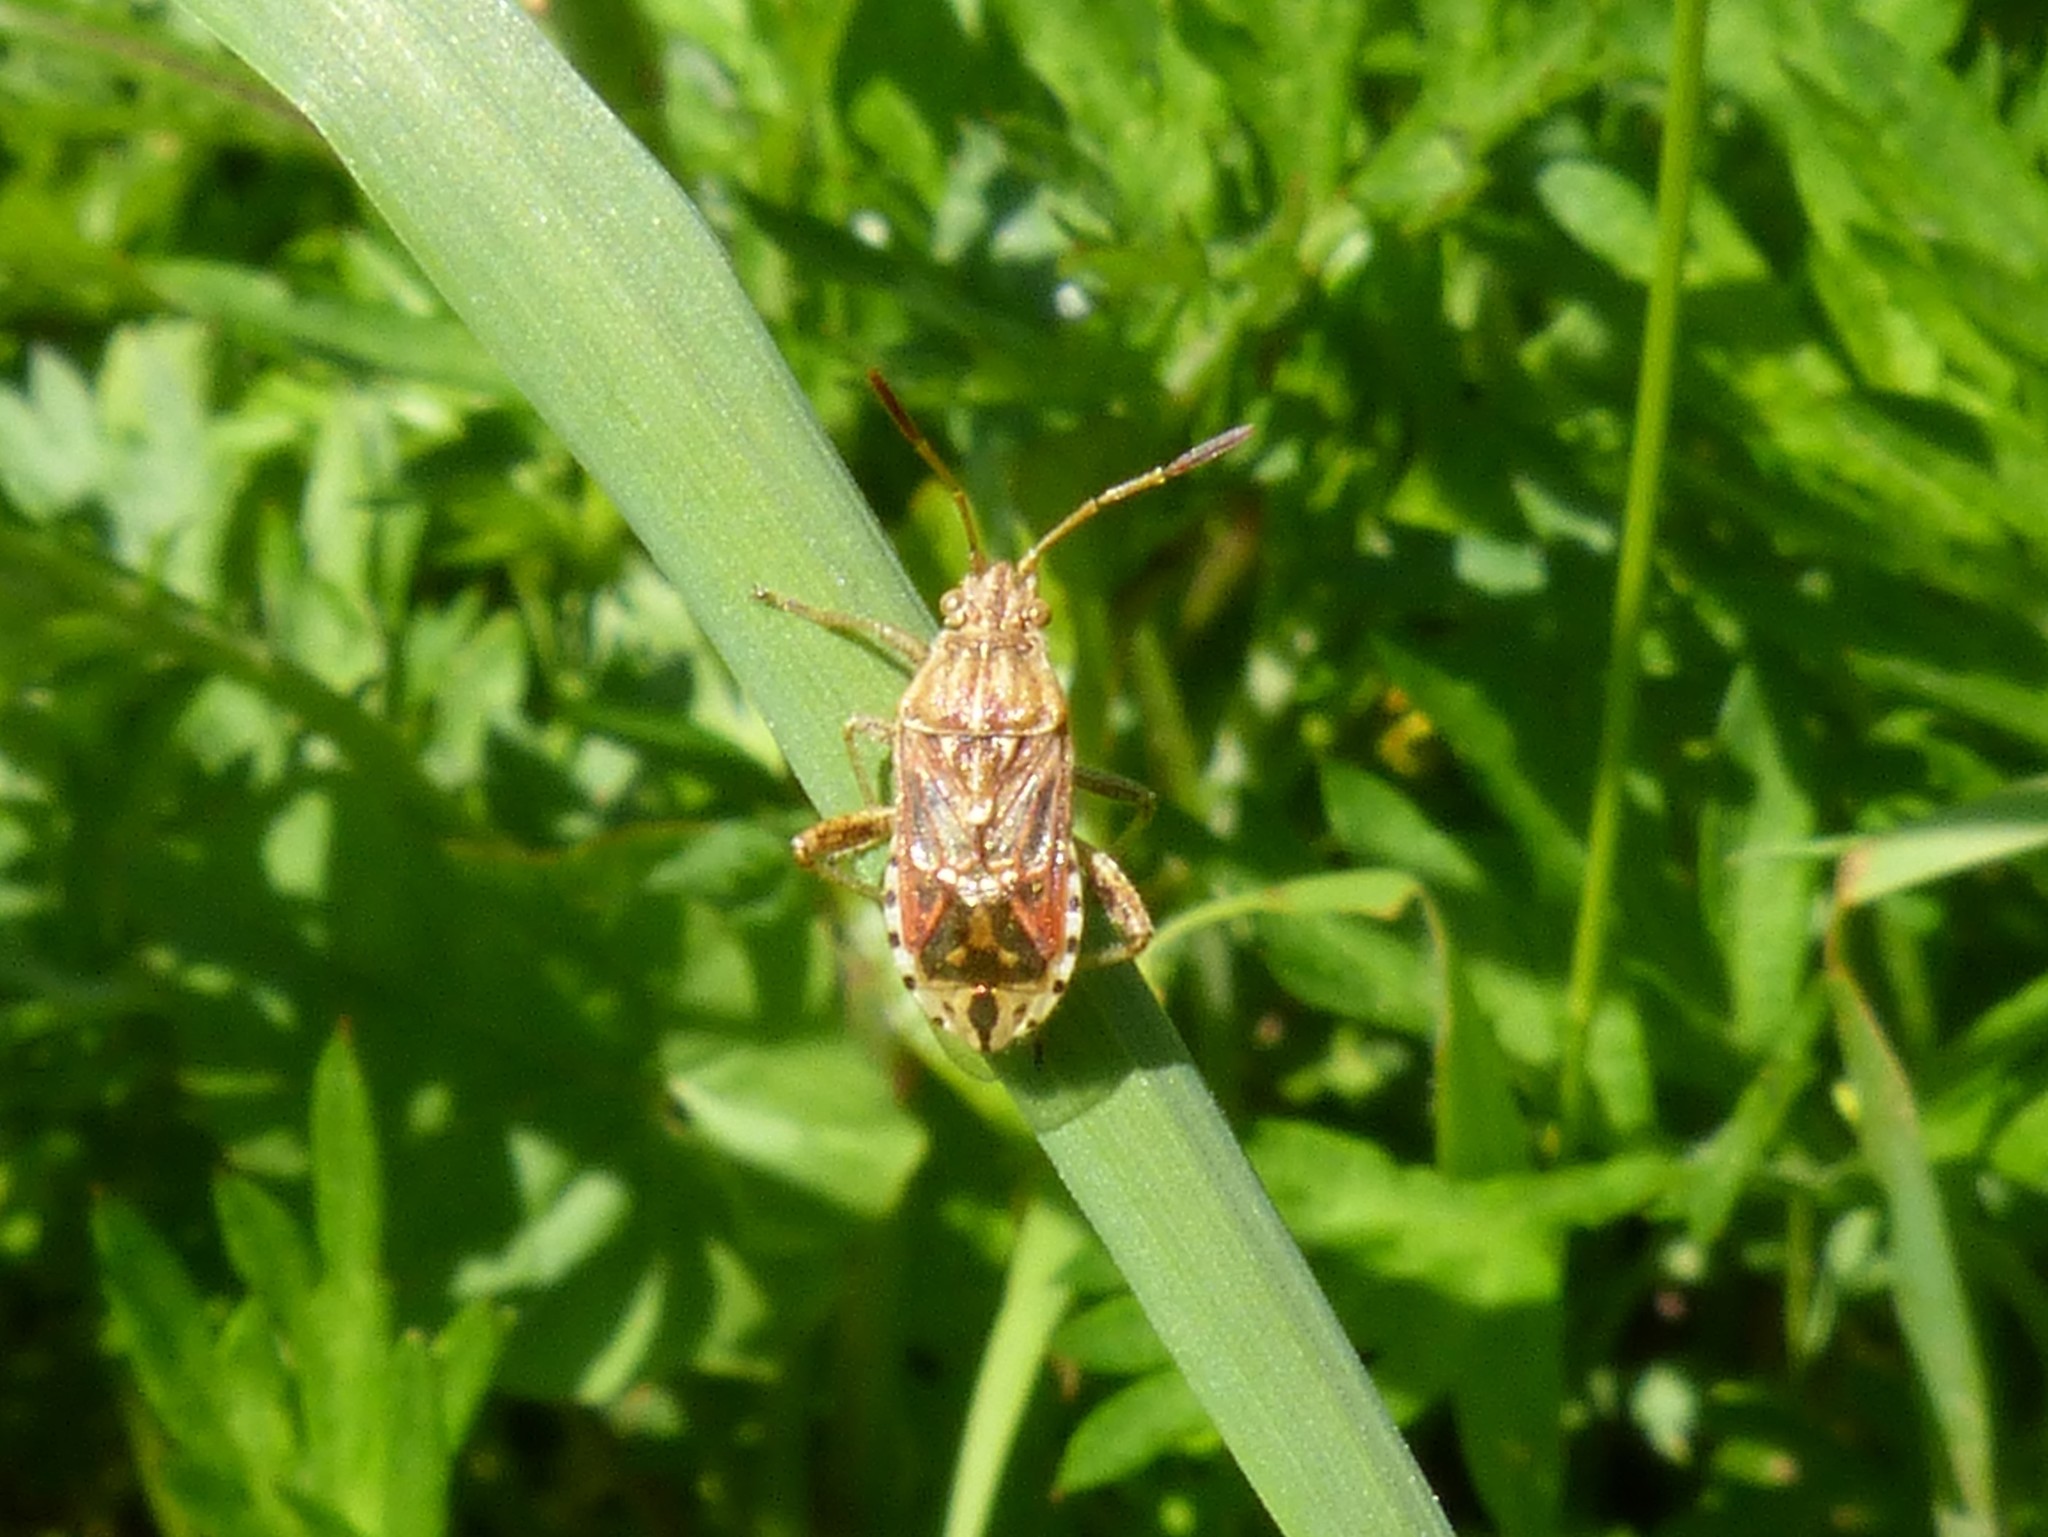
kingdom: Animalia
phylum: Arthropoda
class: Insecta
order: Hemiptera
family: Rhopalidae
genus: Stictopleurus
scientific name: Stictopleurus abutilon
